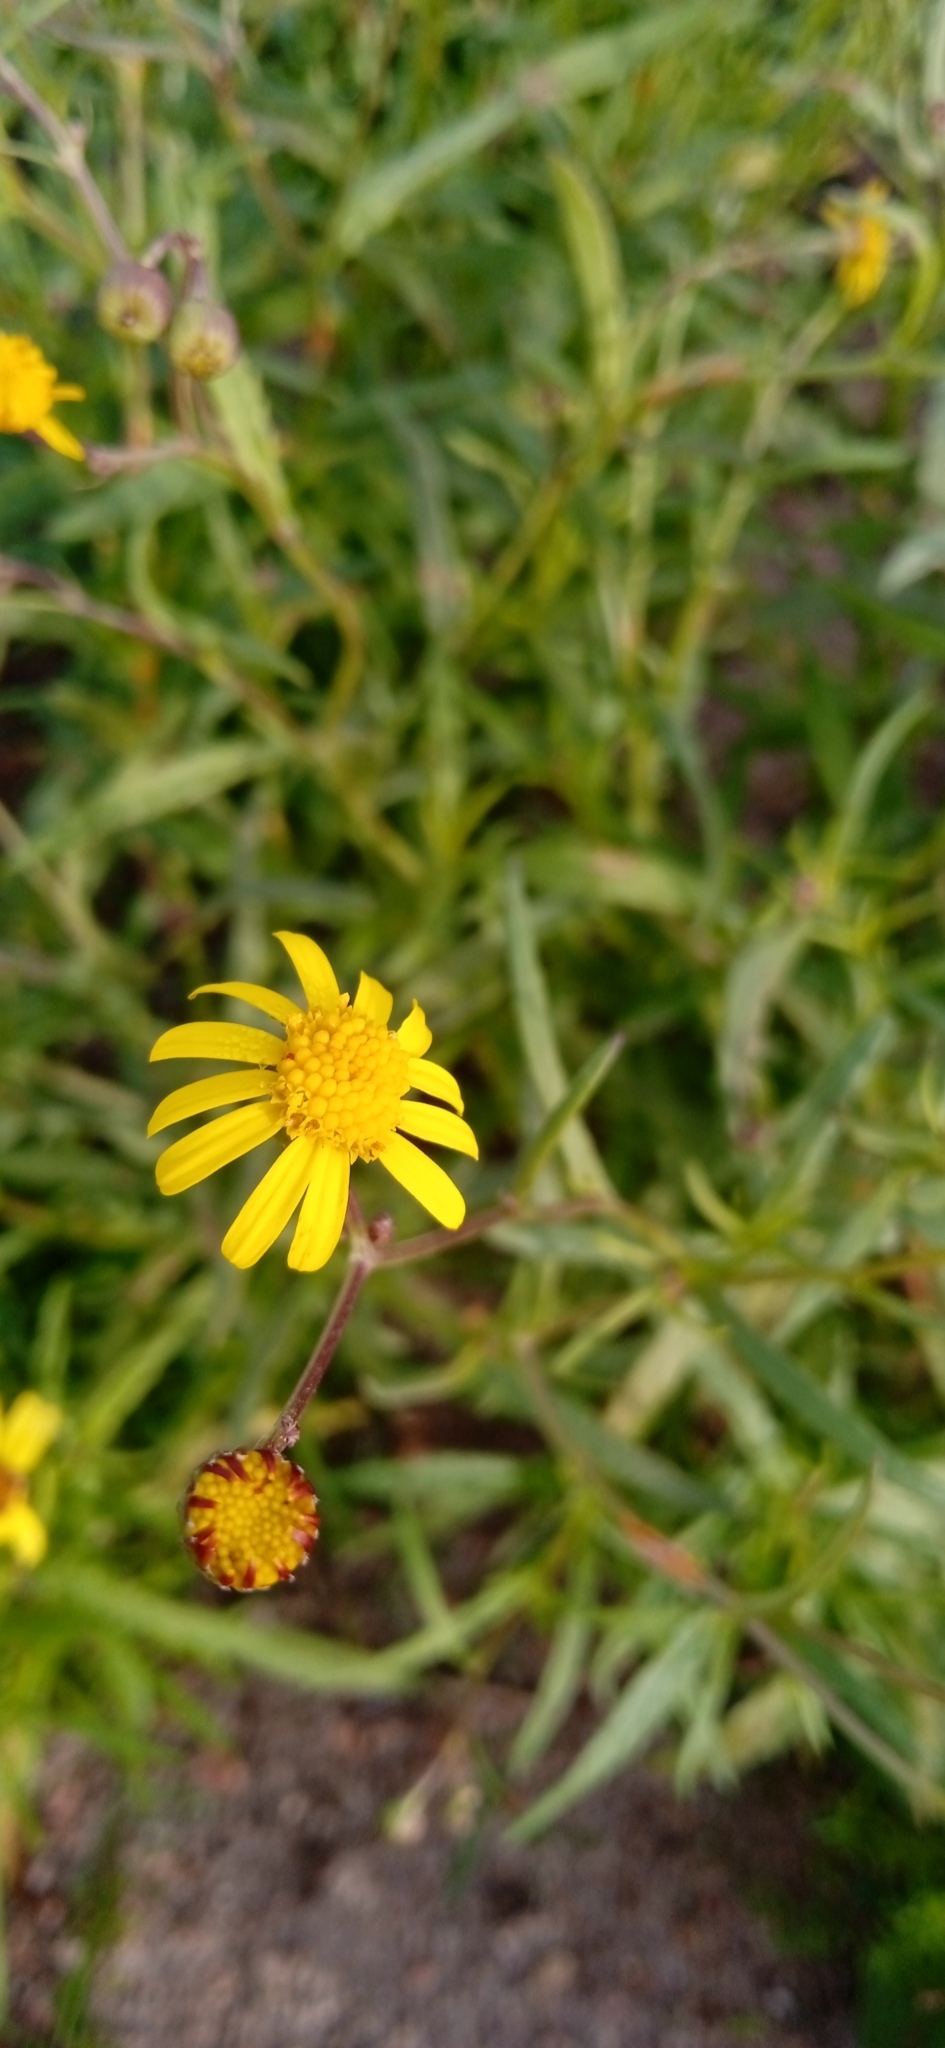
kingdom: Plantae
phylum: Tracheophyta
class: Magnoliopsida
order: Asterales
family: Asteraceae
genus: Senecio
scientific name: Senecio madagascariensis
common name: Madagascar ragwort
